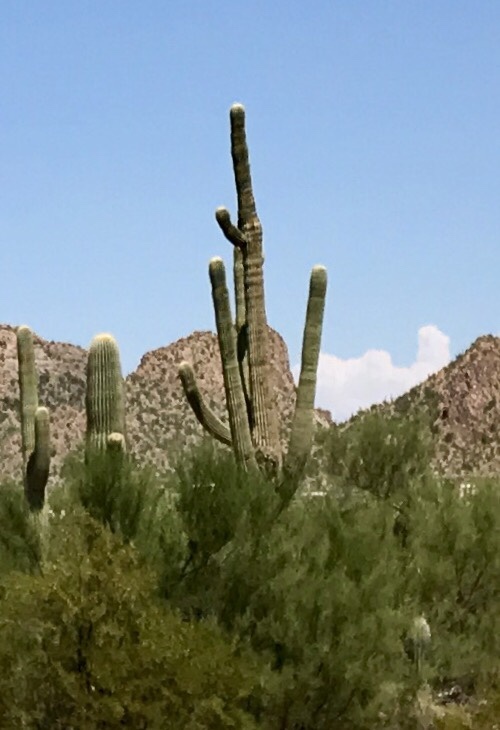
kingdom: Plantae
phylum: Tracheophyta
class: Magnoliopsida
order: Caryophyllales
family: Cactaceae
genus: Carnegiea
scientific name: Carnegiea gigantea
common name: Saguaro
